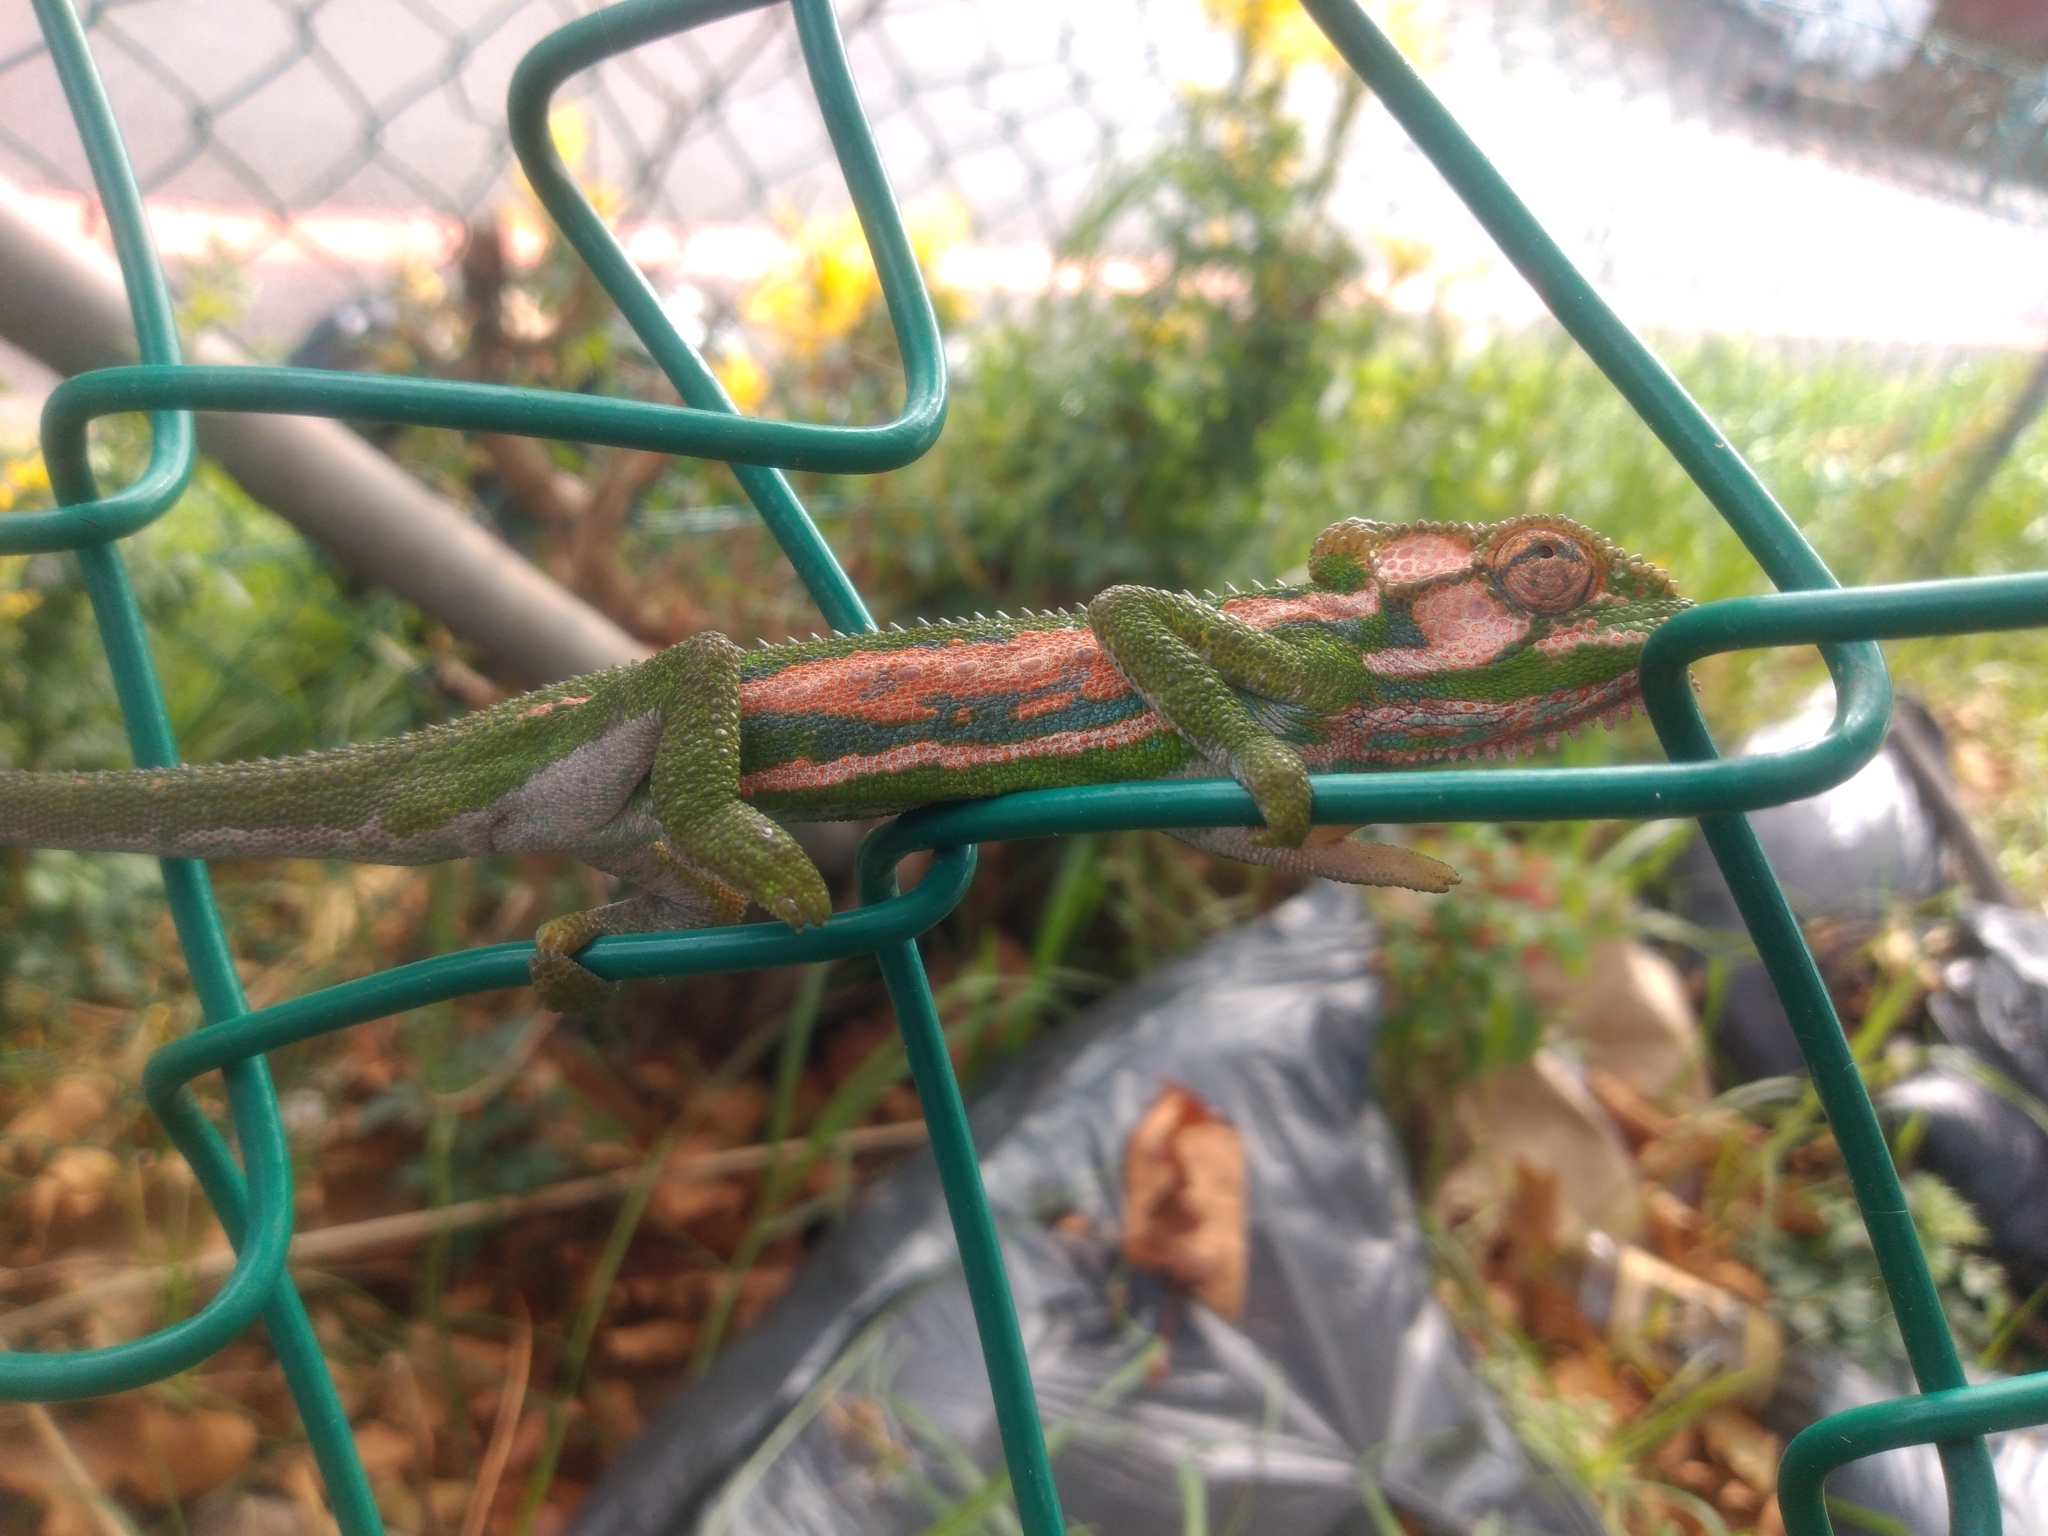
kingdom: Animalia
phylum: Chordata
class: Squamata
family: Chamaeleonidae
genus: Bradypodion
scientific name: Bradypodion pumilum
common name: Cape dwarf chameleon
